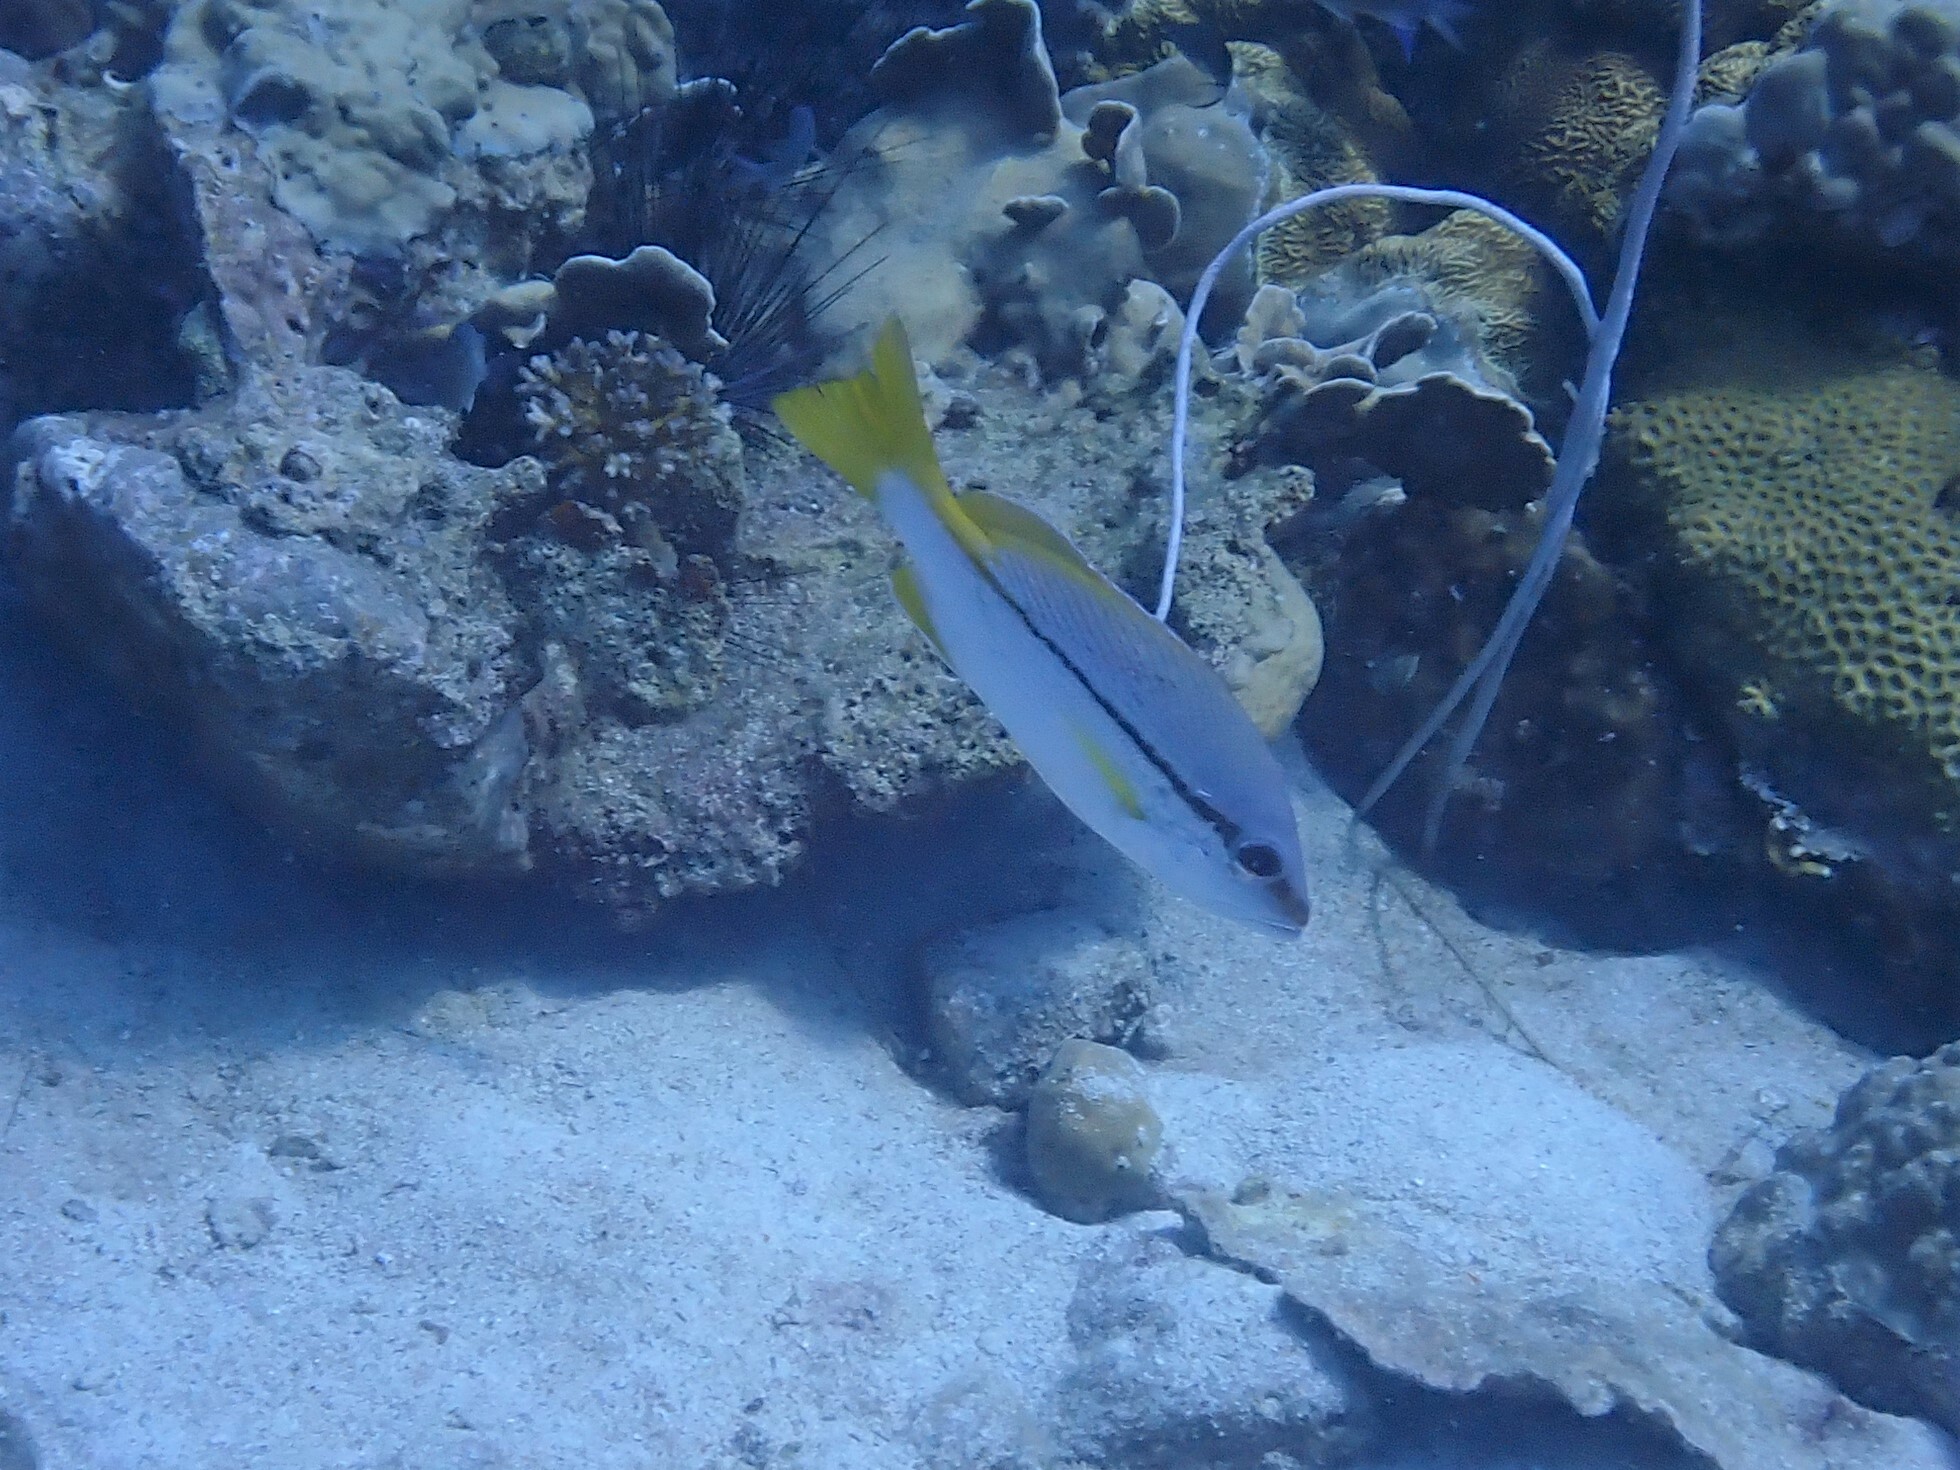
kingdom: Animalia
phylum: Chordata
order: Perciformes
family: Lutjanidae
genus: Lutjanus
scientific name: Lutjanus vitta
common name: Brownstripe red snapper
